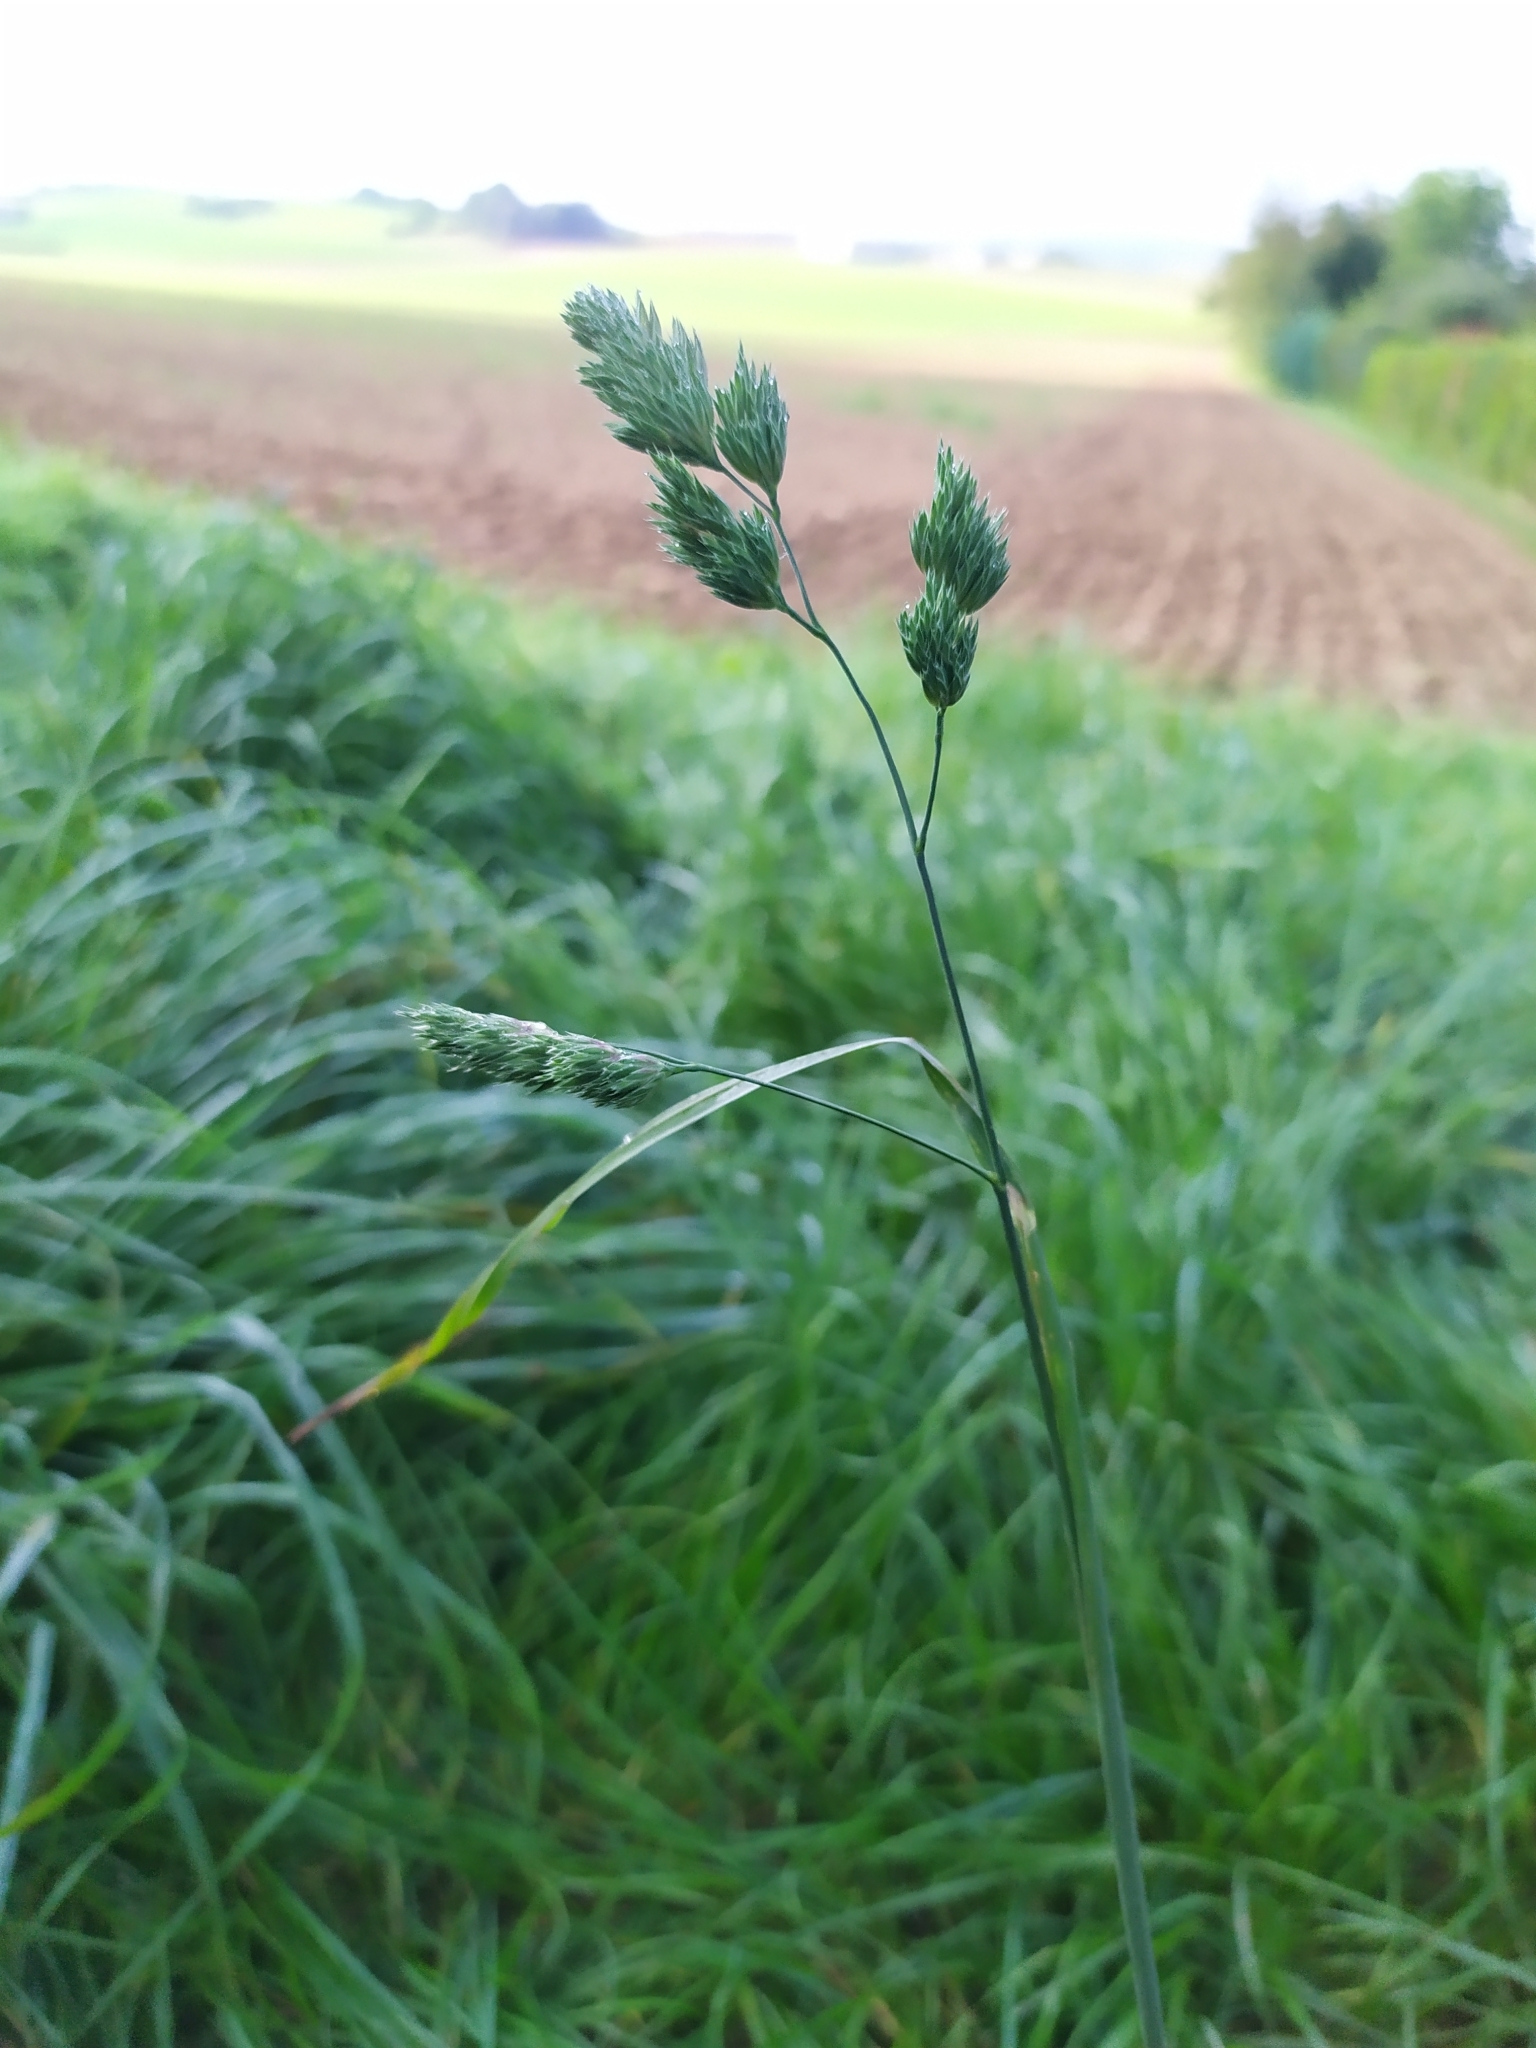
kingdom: Plantae
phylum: Tracheophyta
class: Liliopsida
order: Poales
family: Poaceae
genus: Dactylis
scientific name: Dactylis glomerata
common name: Orchardgrass
